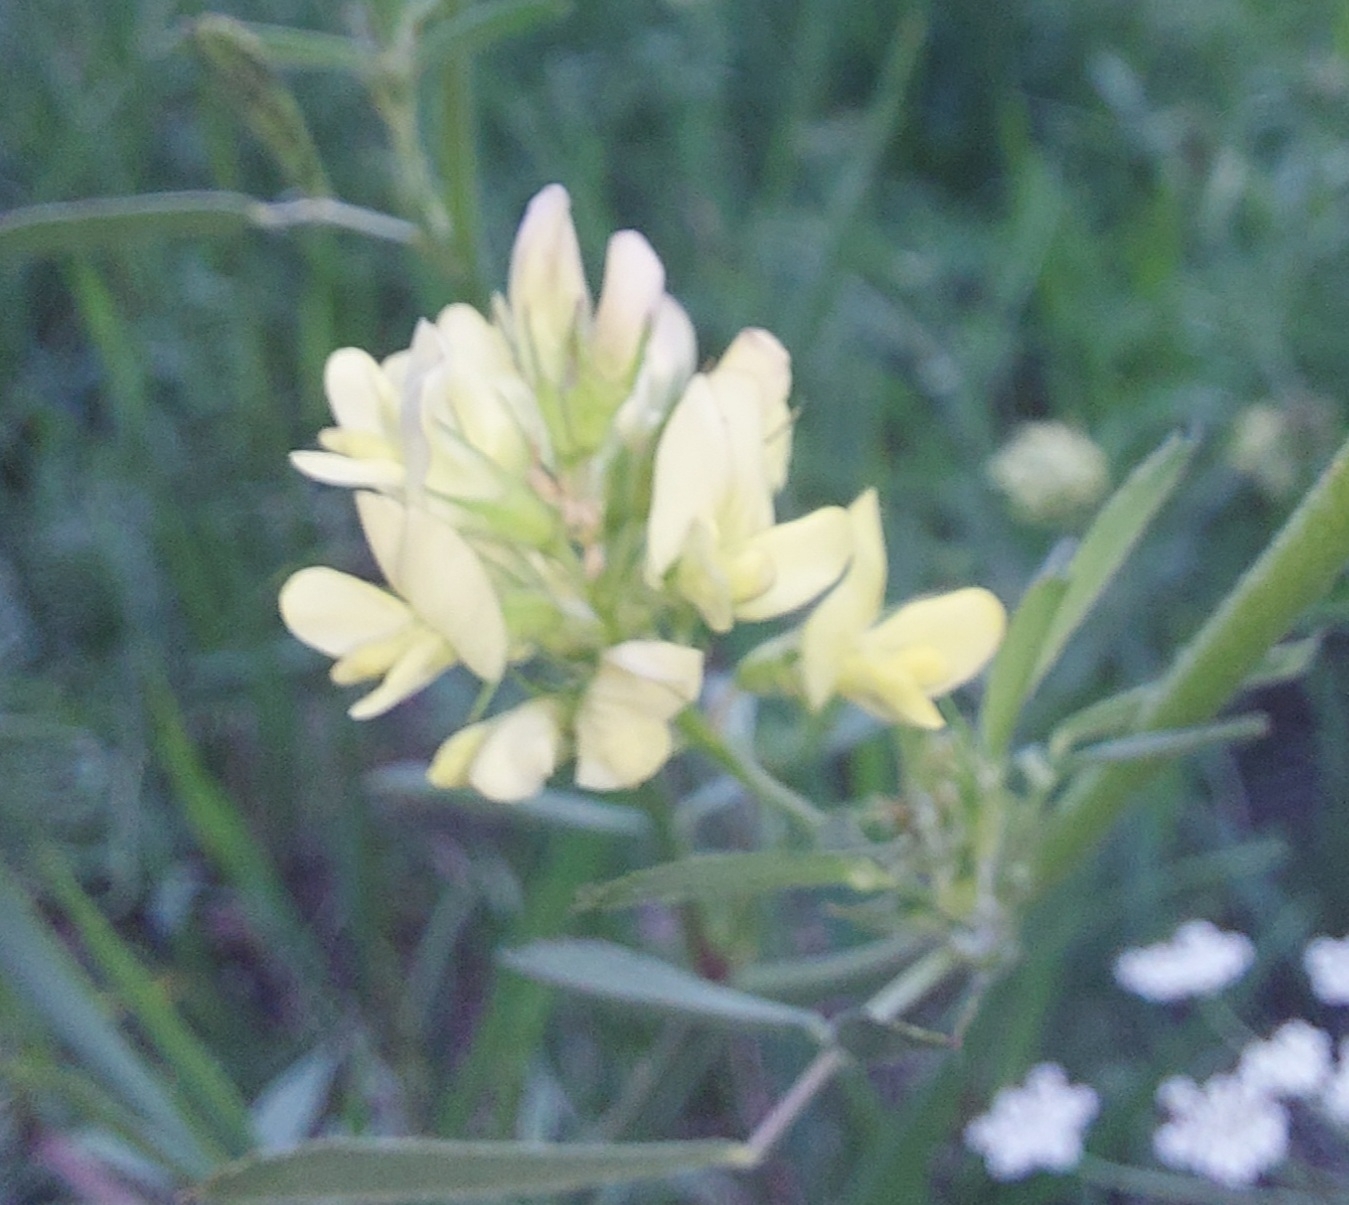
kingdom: Plantae
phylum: Tracheophyta
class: Magnoliopsida
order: Fabales
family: Fabaceae
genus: Medicago
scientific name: Medicago varia
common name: Sand lucerne
